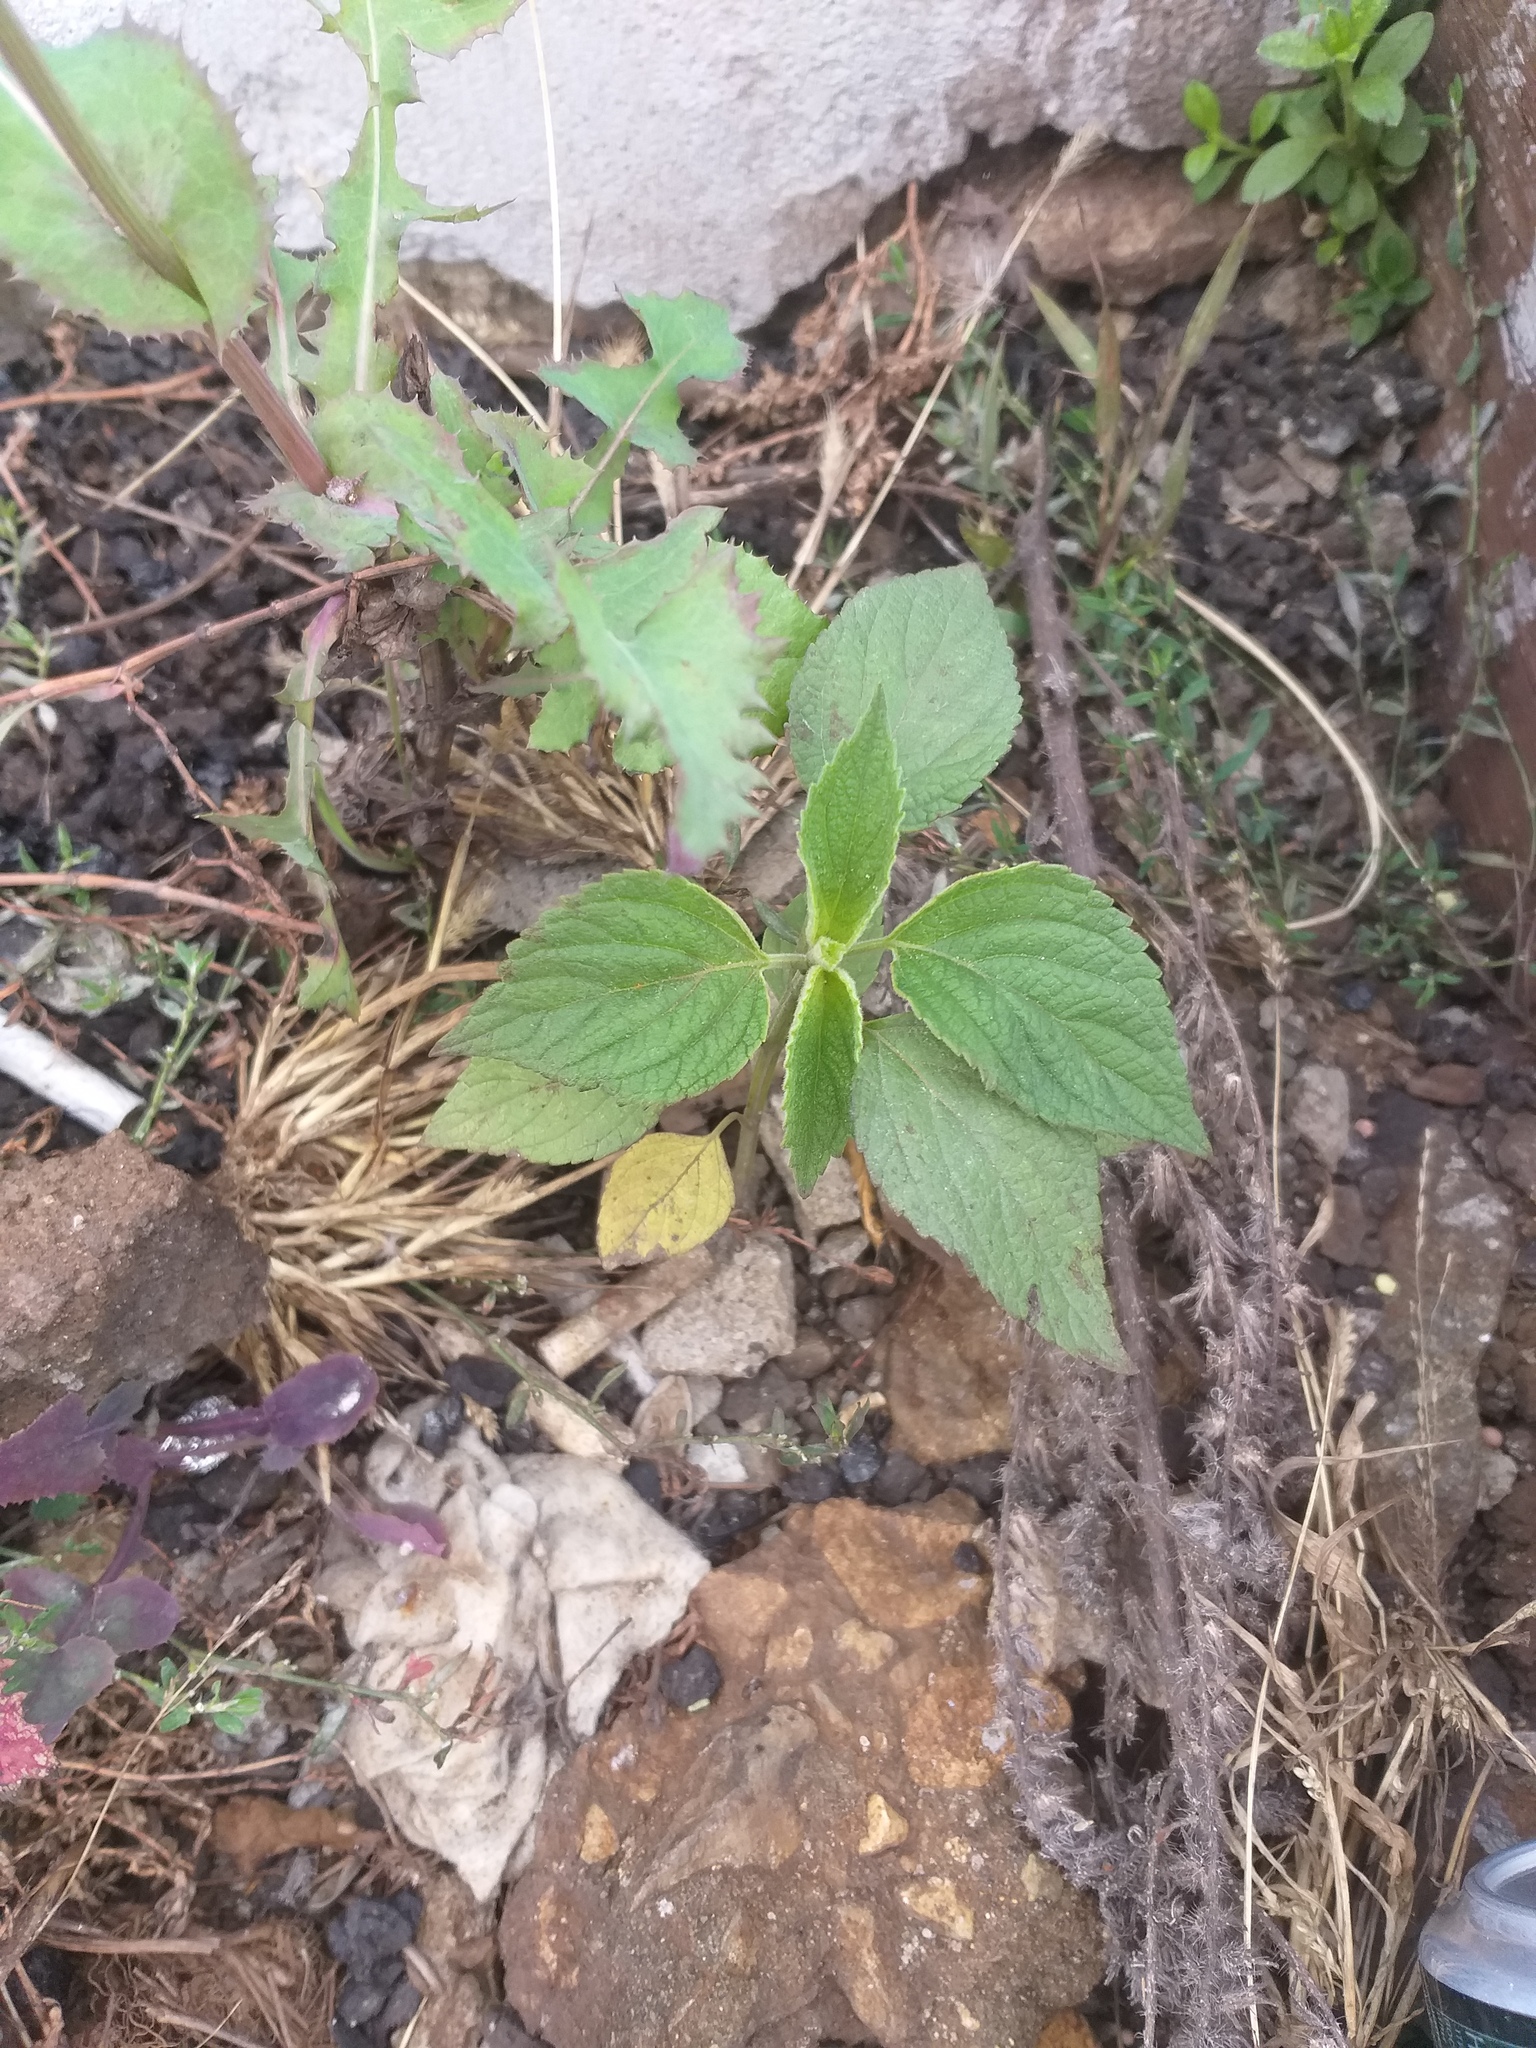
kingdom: Plantae
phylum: Tracheophyta
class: Magnoliopsida
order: Lamiales
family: Lamiaceae
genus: Salvia
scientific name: Salvia hispanica
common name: Chia
